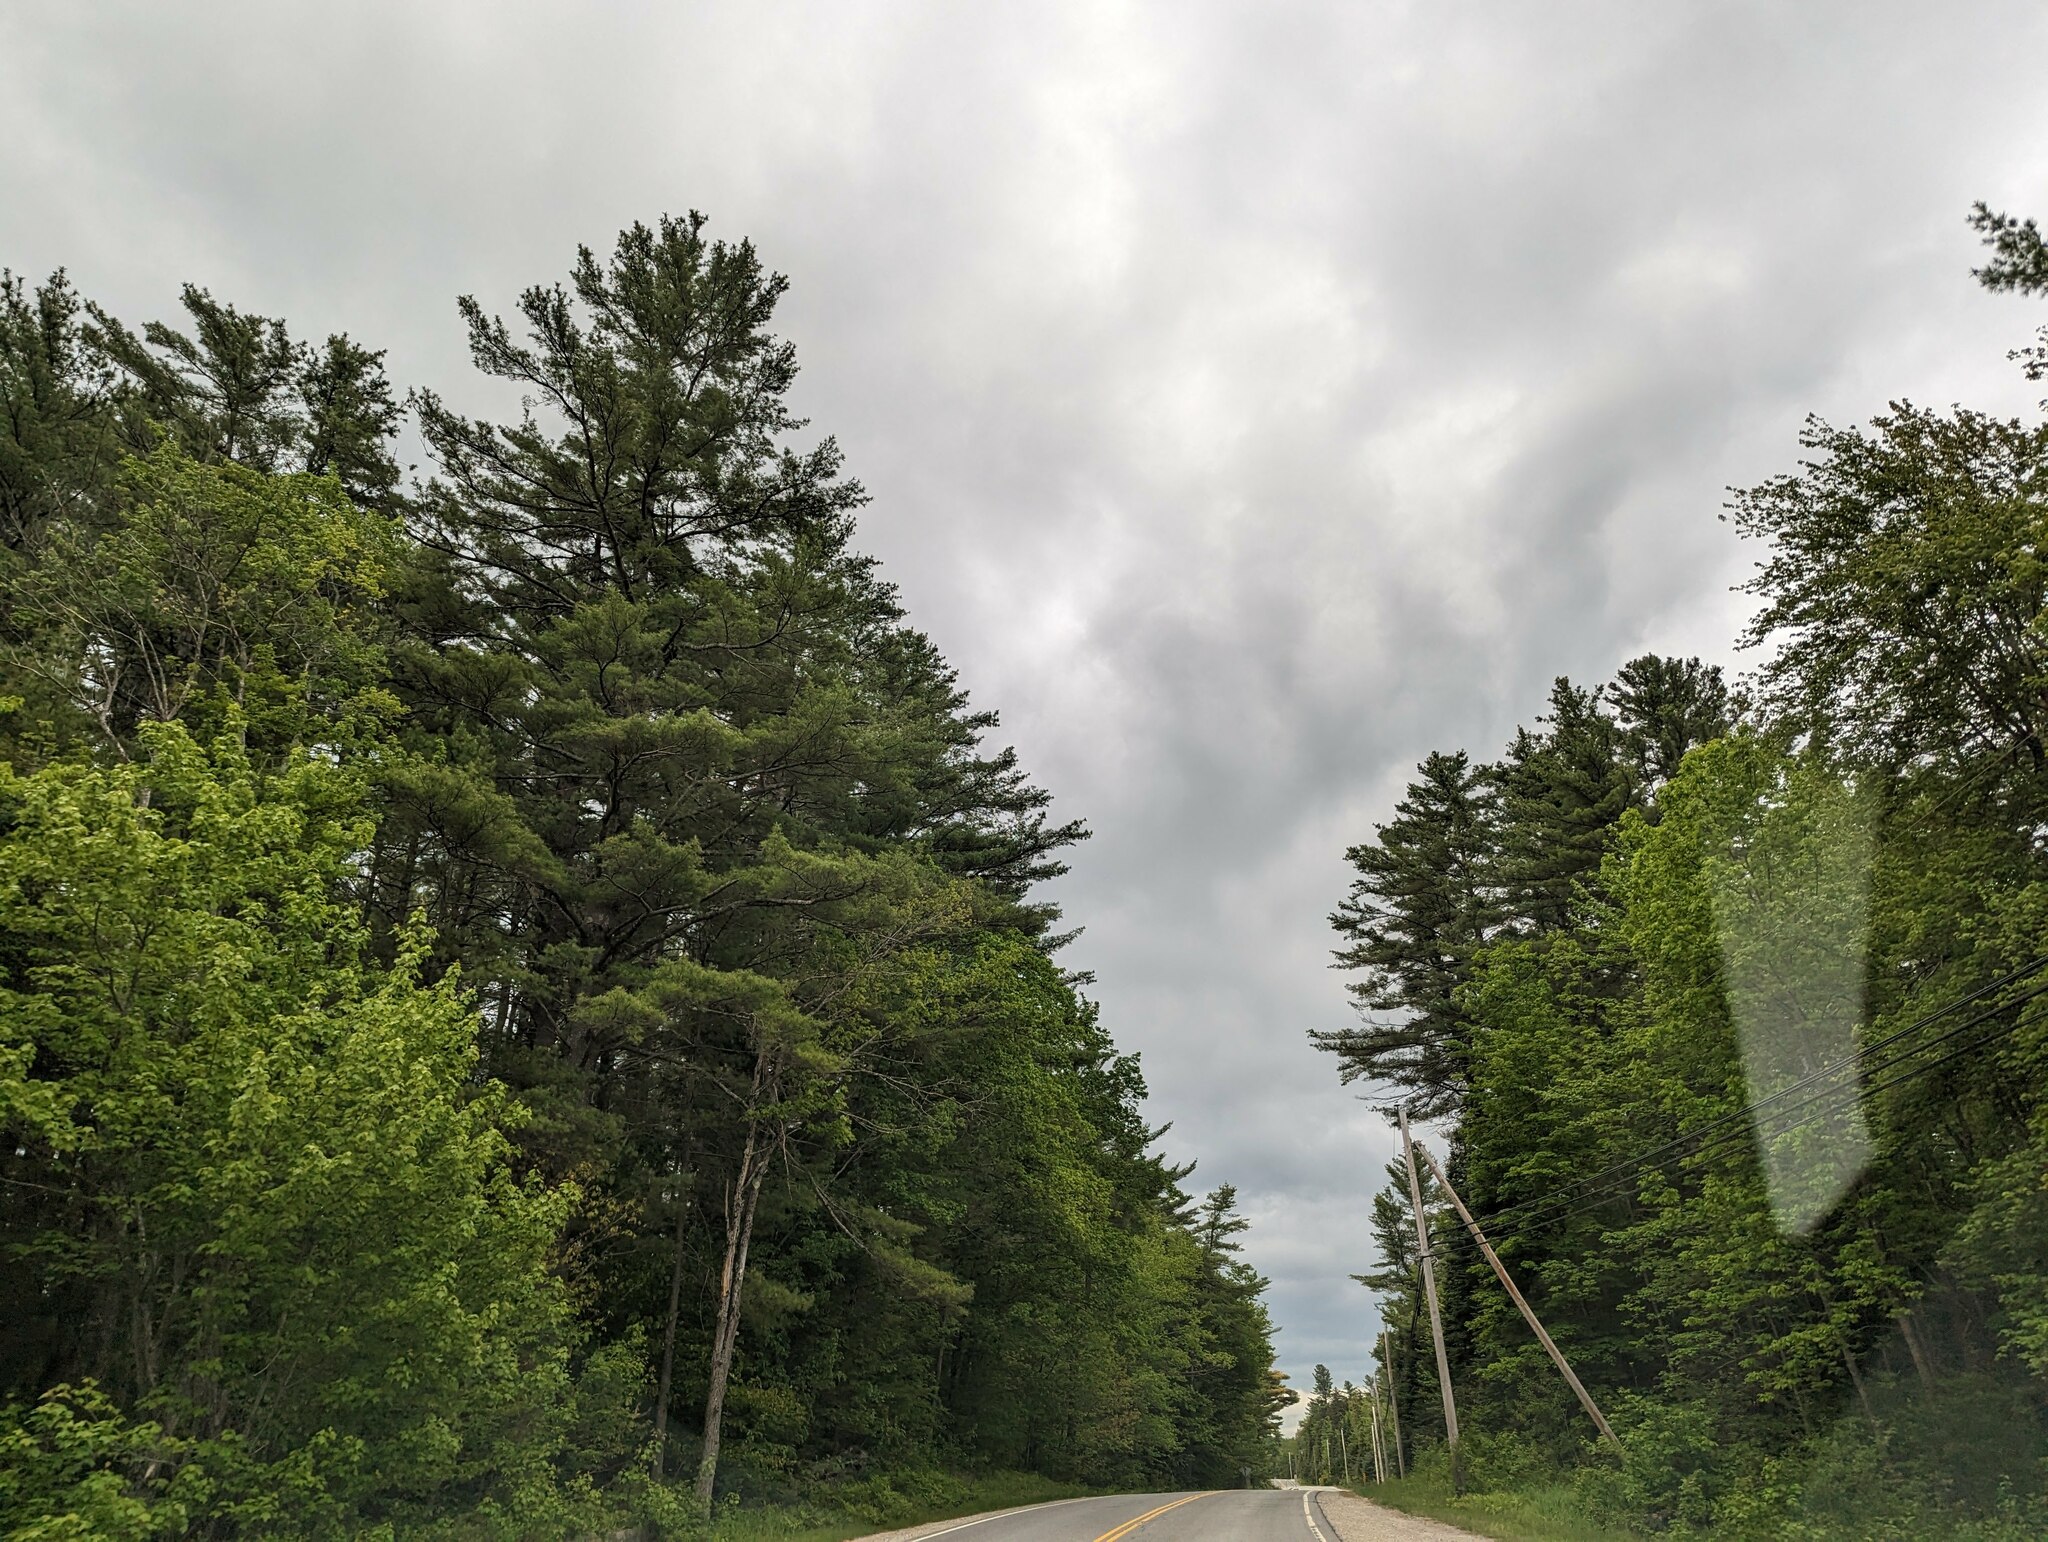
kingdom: Plantae
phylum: Tracheophyta
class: Pinopsida
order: Pinales
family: Pinaceae
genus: Pinus
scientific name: Pinus strobus
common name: Weymouth pine
